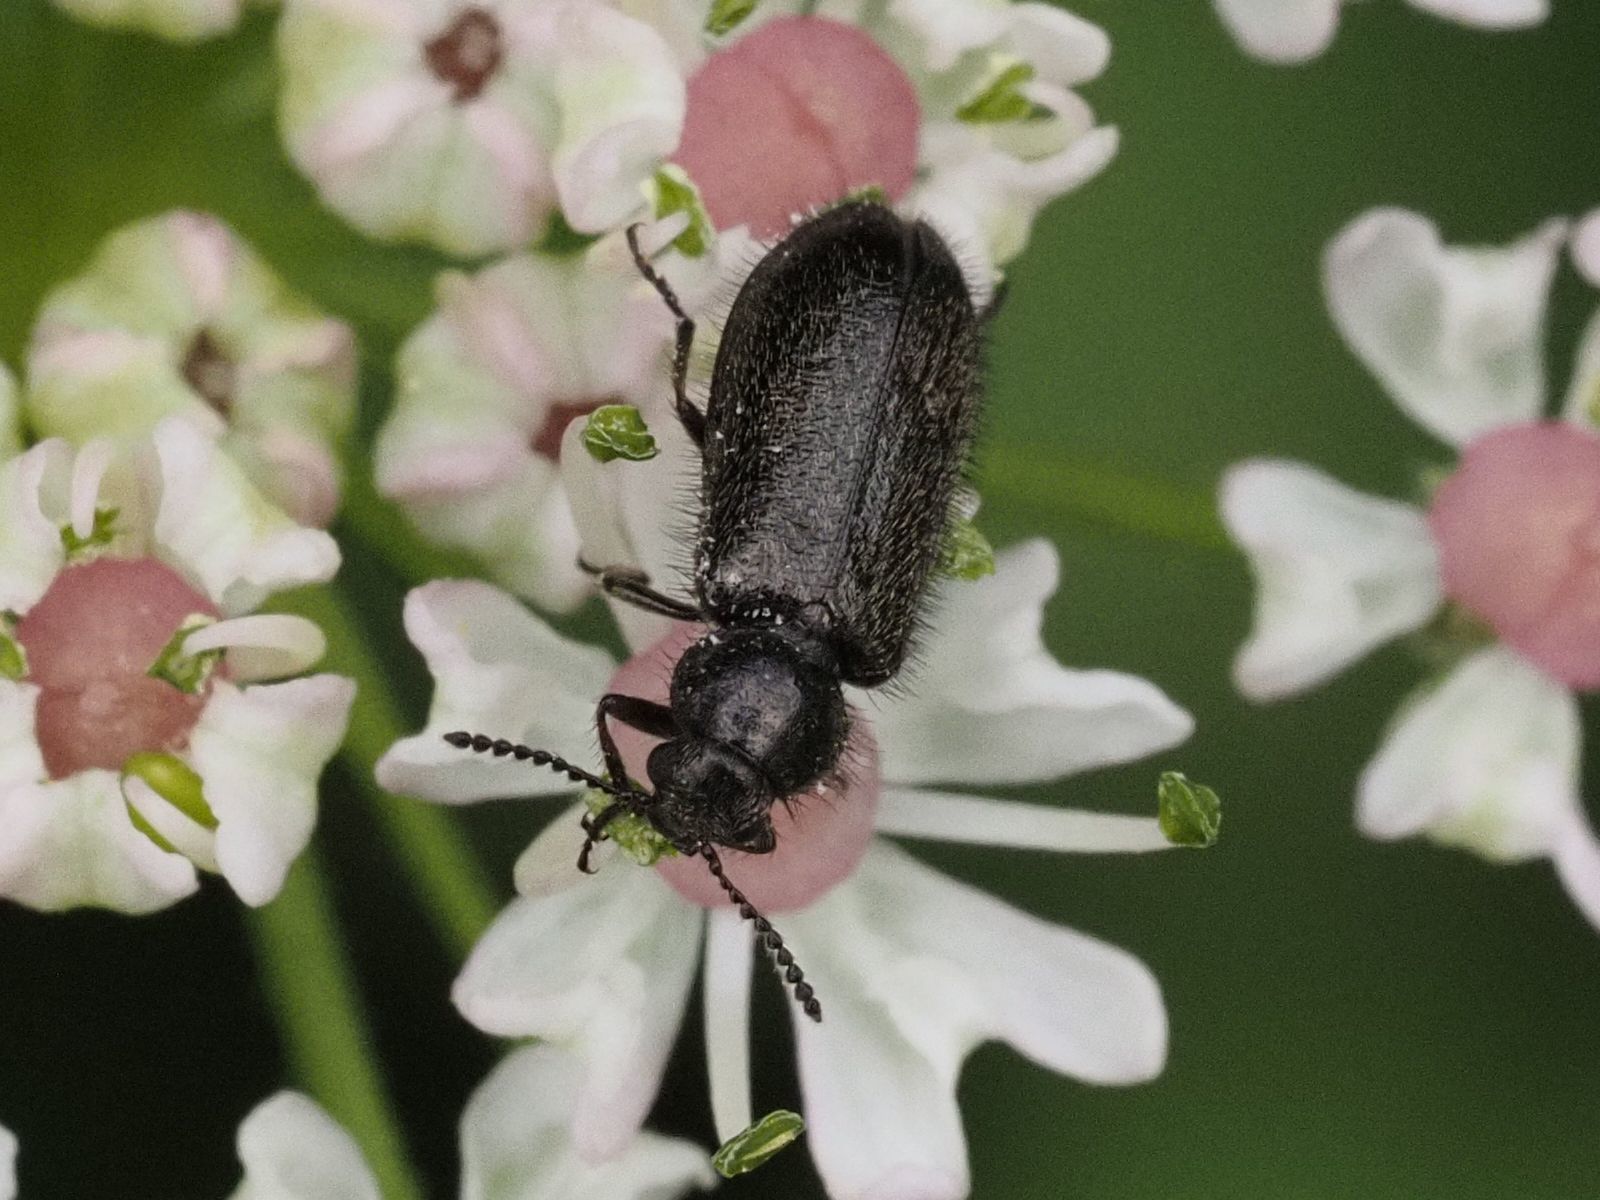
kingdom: Animalia
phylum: Arthropoda
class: Insecta
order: Coleoptera
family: Melyridae
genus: Dasytes
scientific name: Dasytes alpigradus
